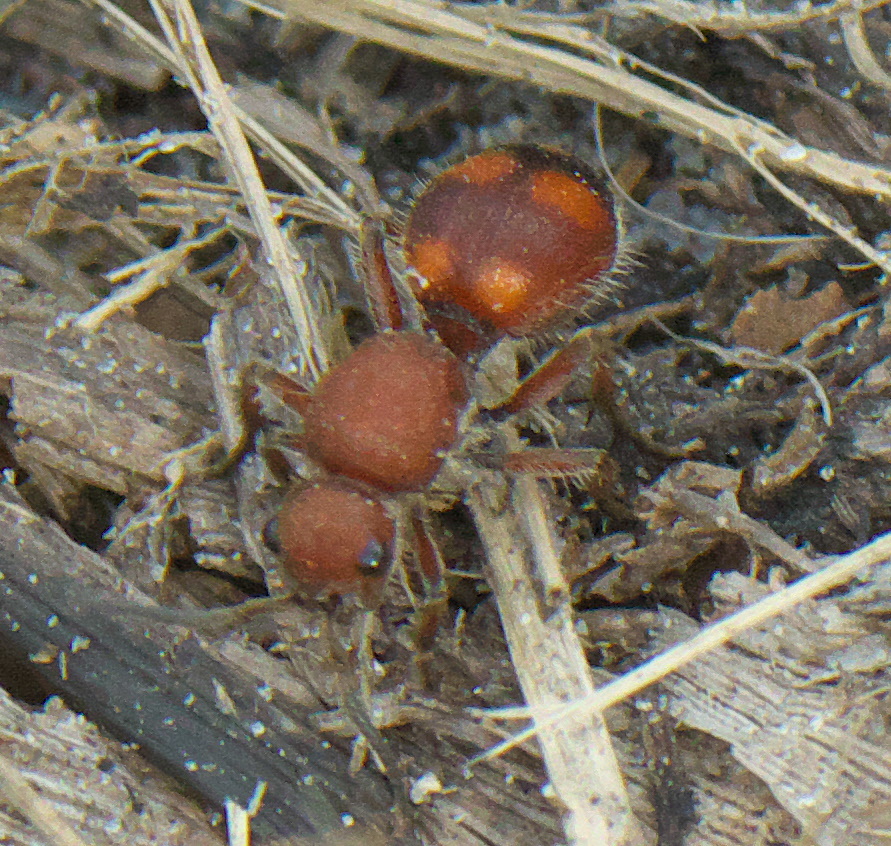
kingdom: Animalia
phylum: Arthropoda
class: Insecta
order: Hymenoptera
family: Mutillidae
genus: Dasymutilla
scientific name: Dasymutilla
